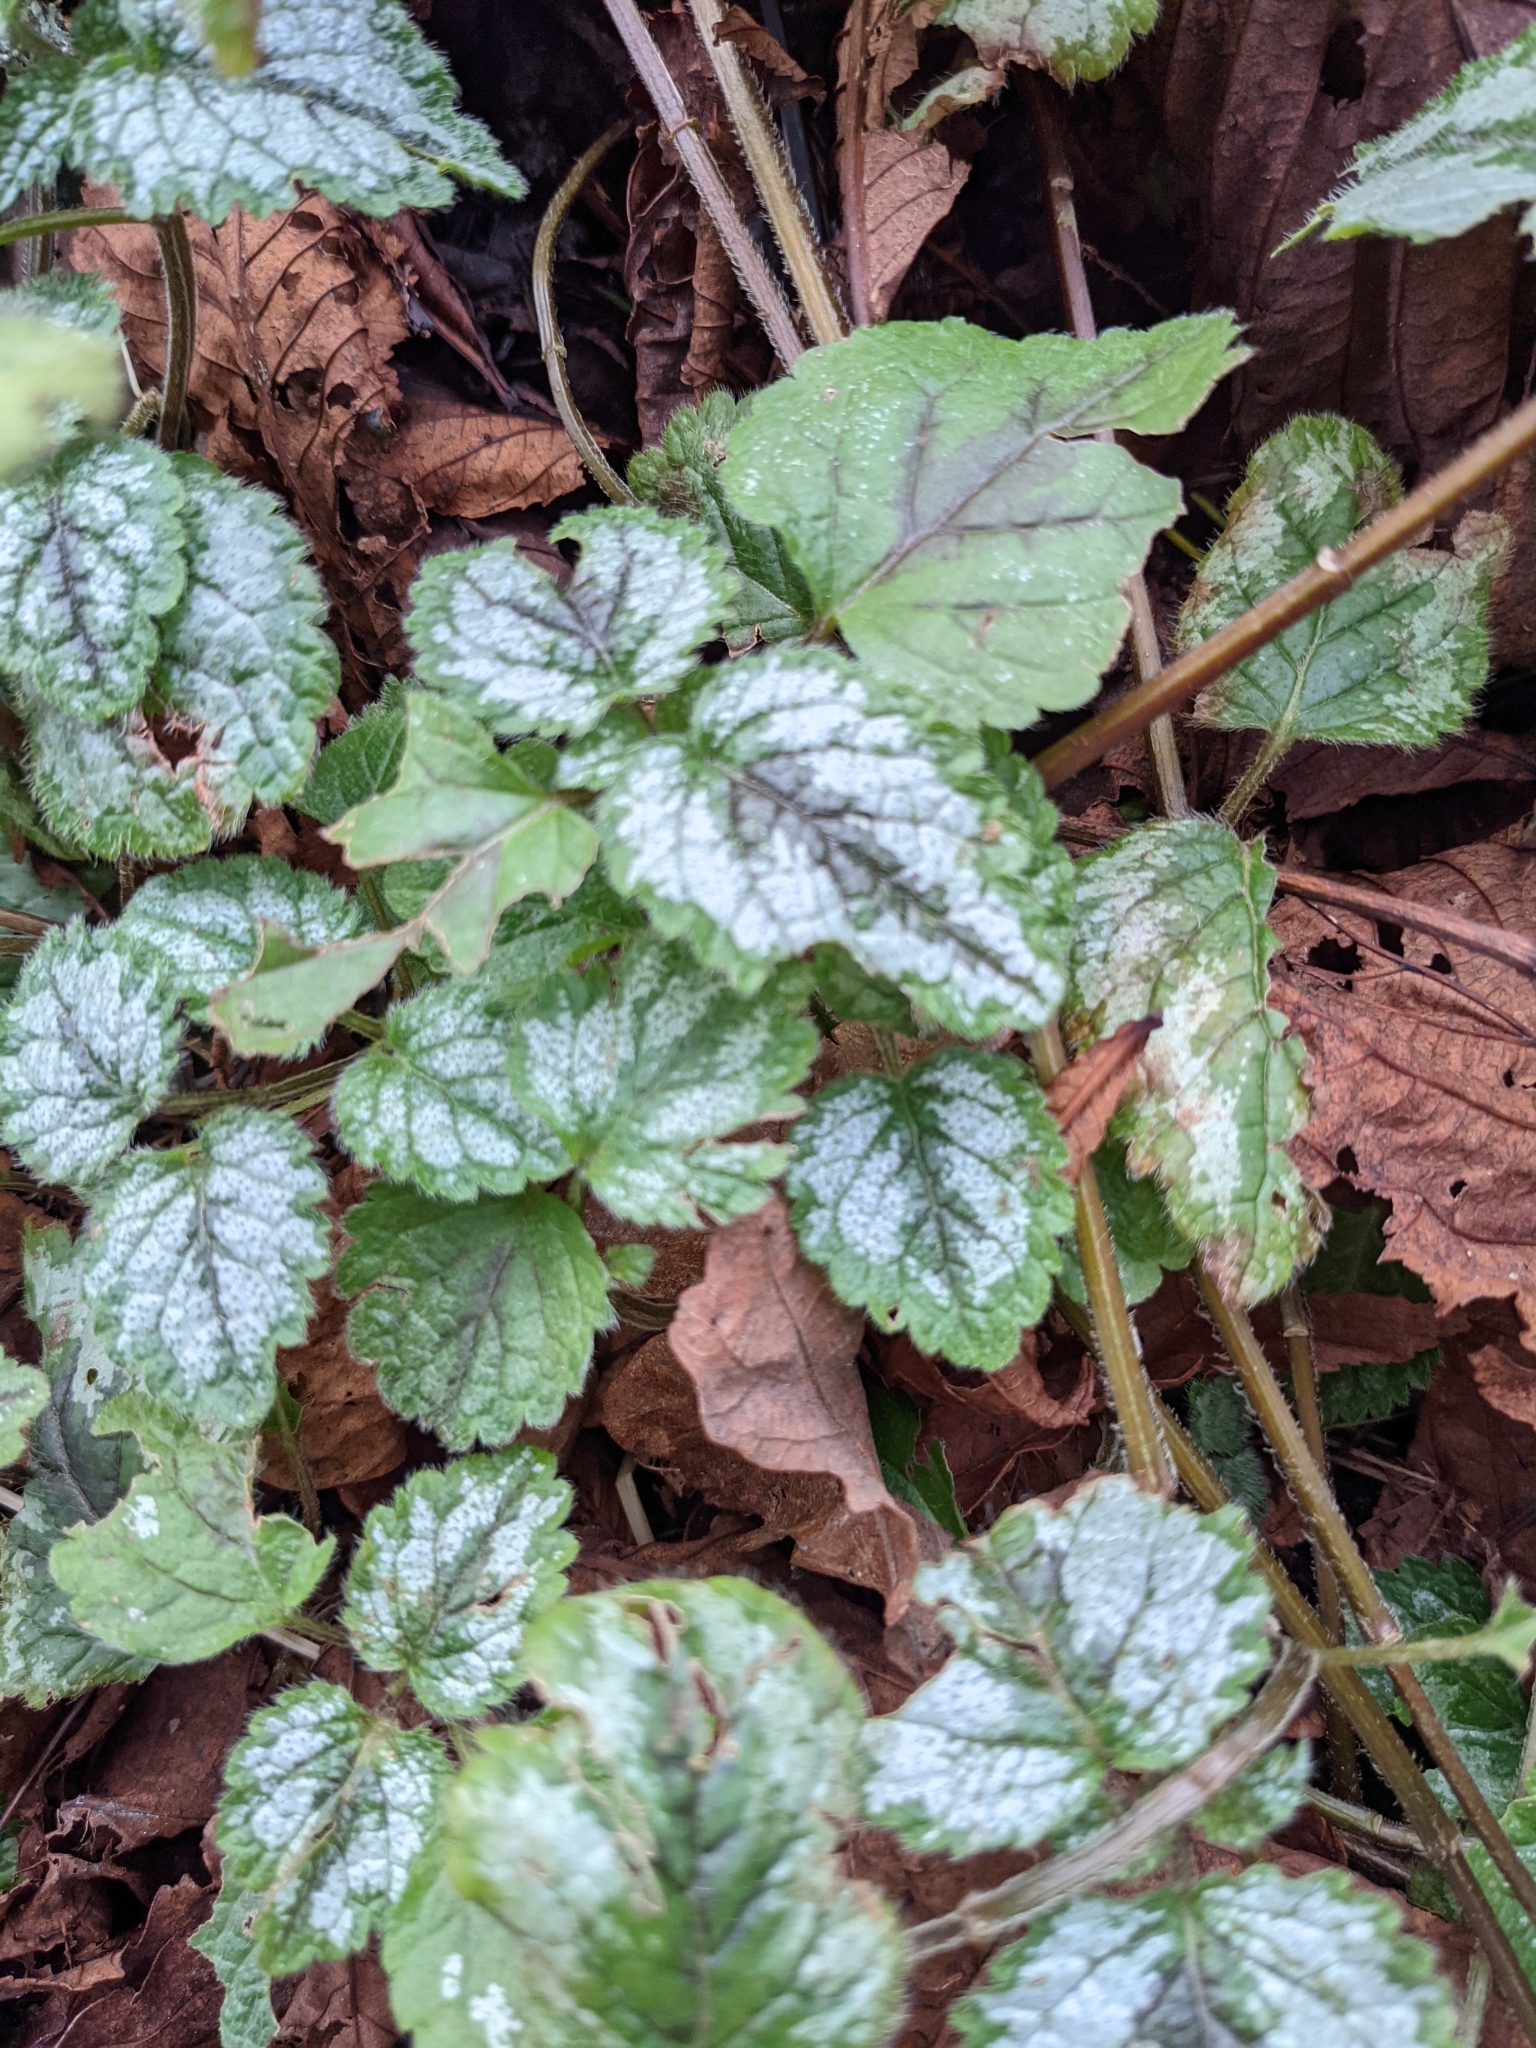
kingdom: Plantae
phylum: Tracheophyta
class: Magnoliopsida
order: Lamiales
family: Lamiaceae
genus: Lamium
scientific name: Lamium galeobdolon
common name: Yellow archangel
